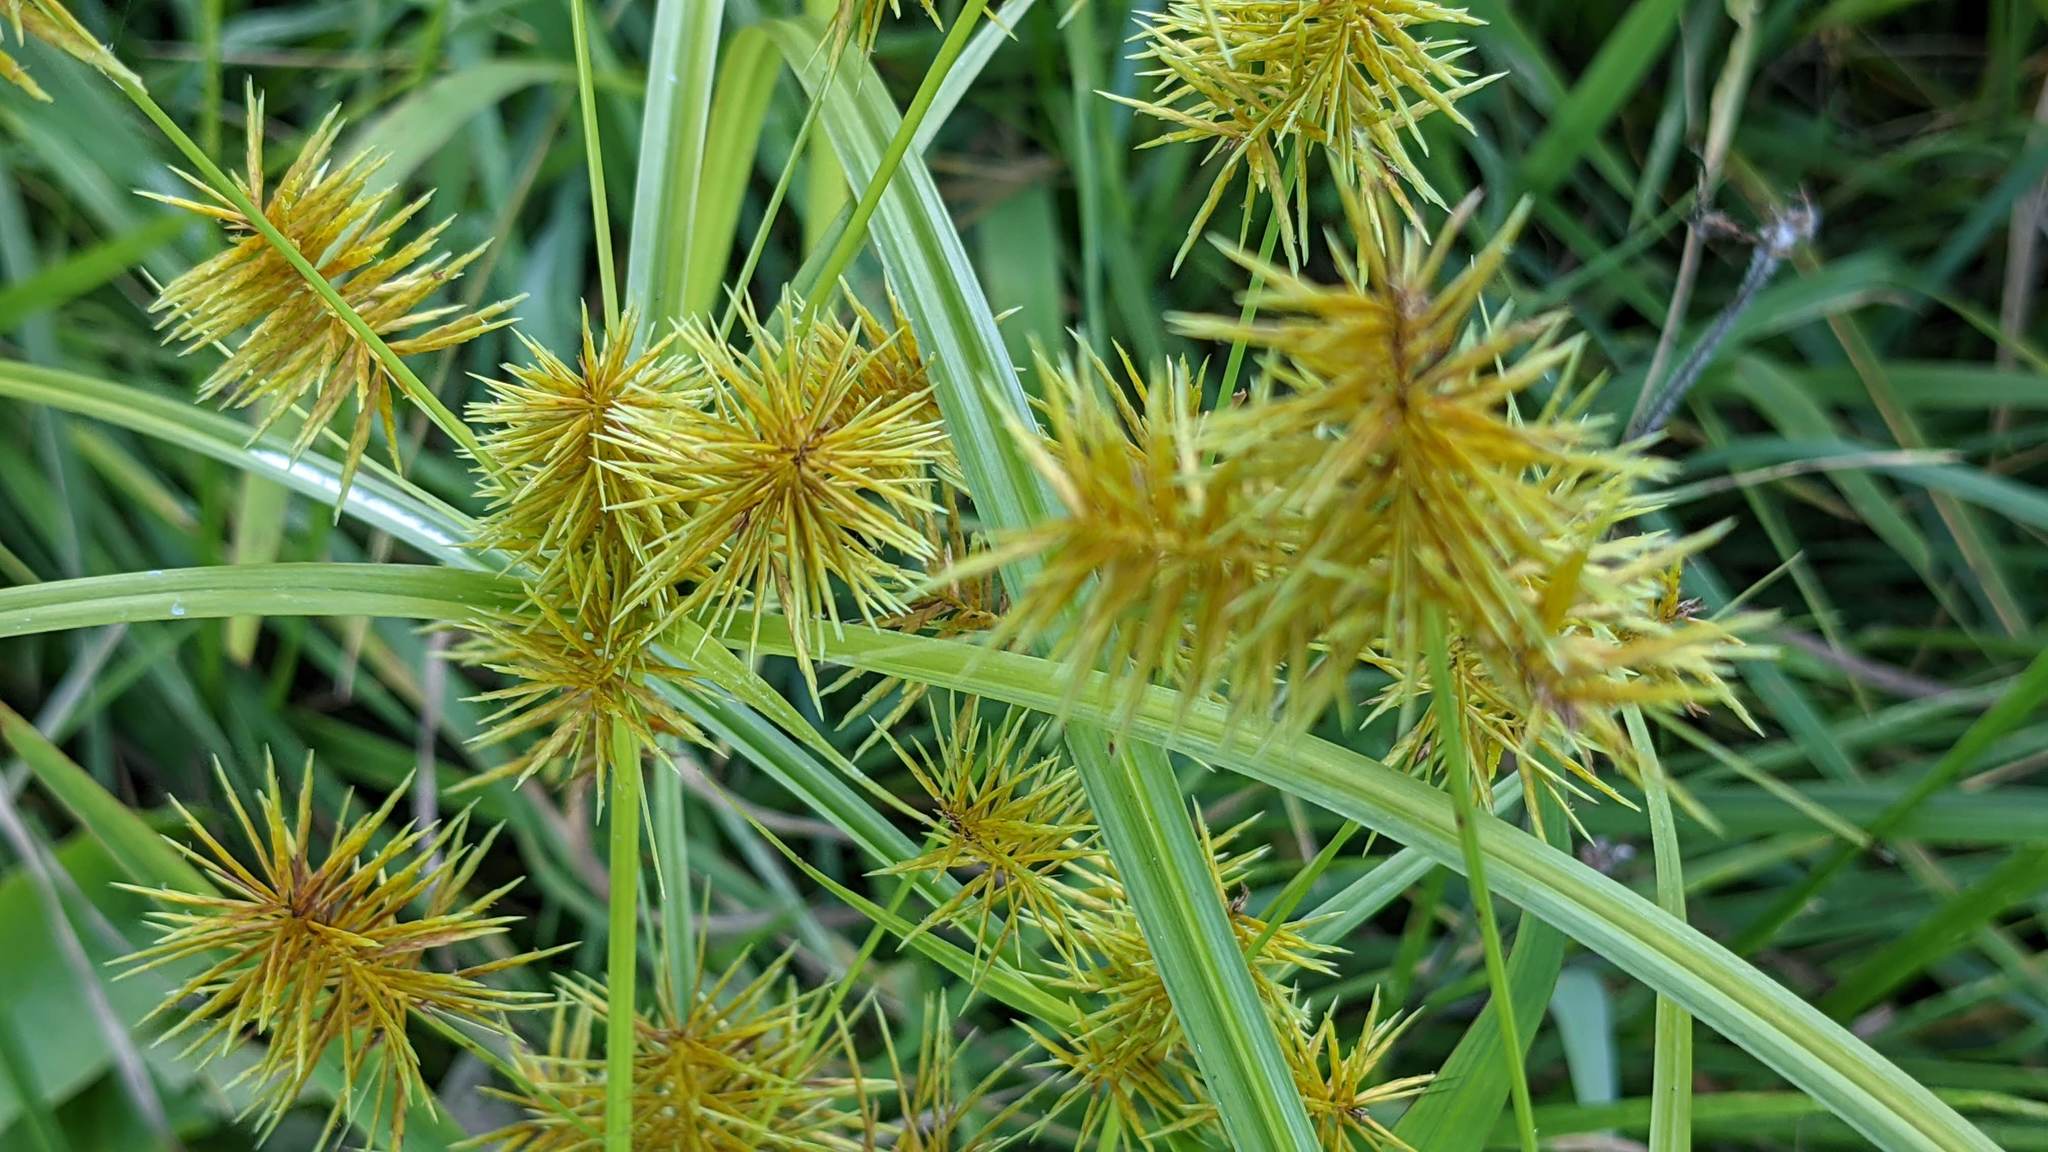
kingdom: Plantae
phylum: Tracheophyta
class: Liliopsida
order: Poales
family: Cyperaceae
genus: Cyperus
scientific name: Cyperus strigosus
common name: False nutsedge
